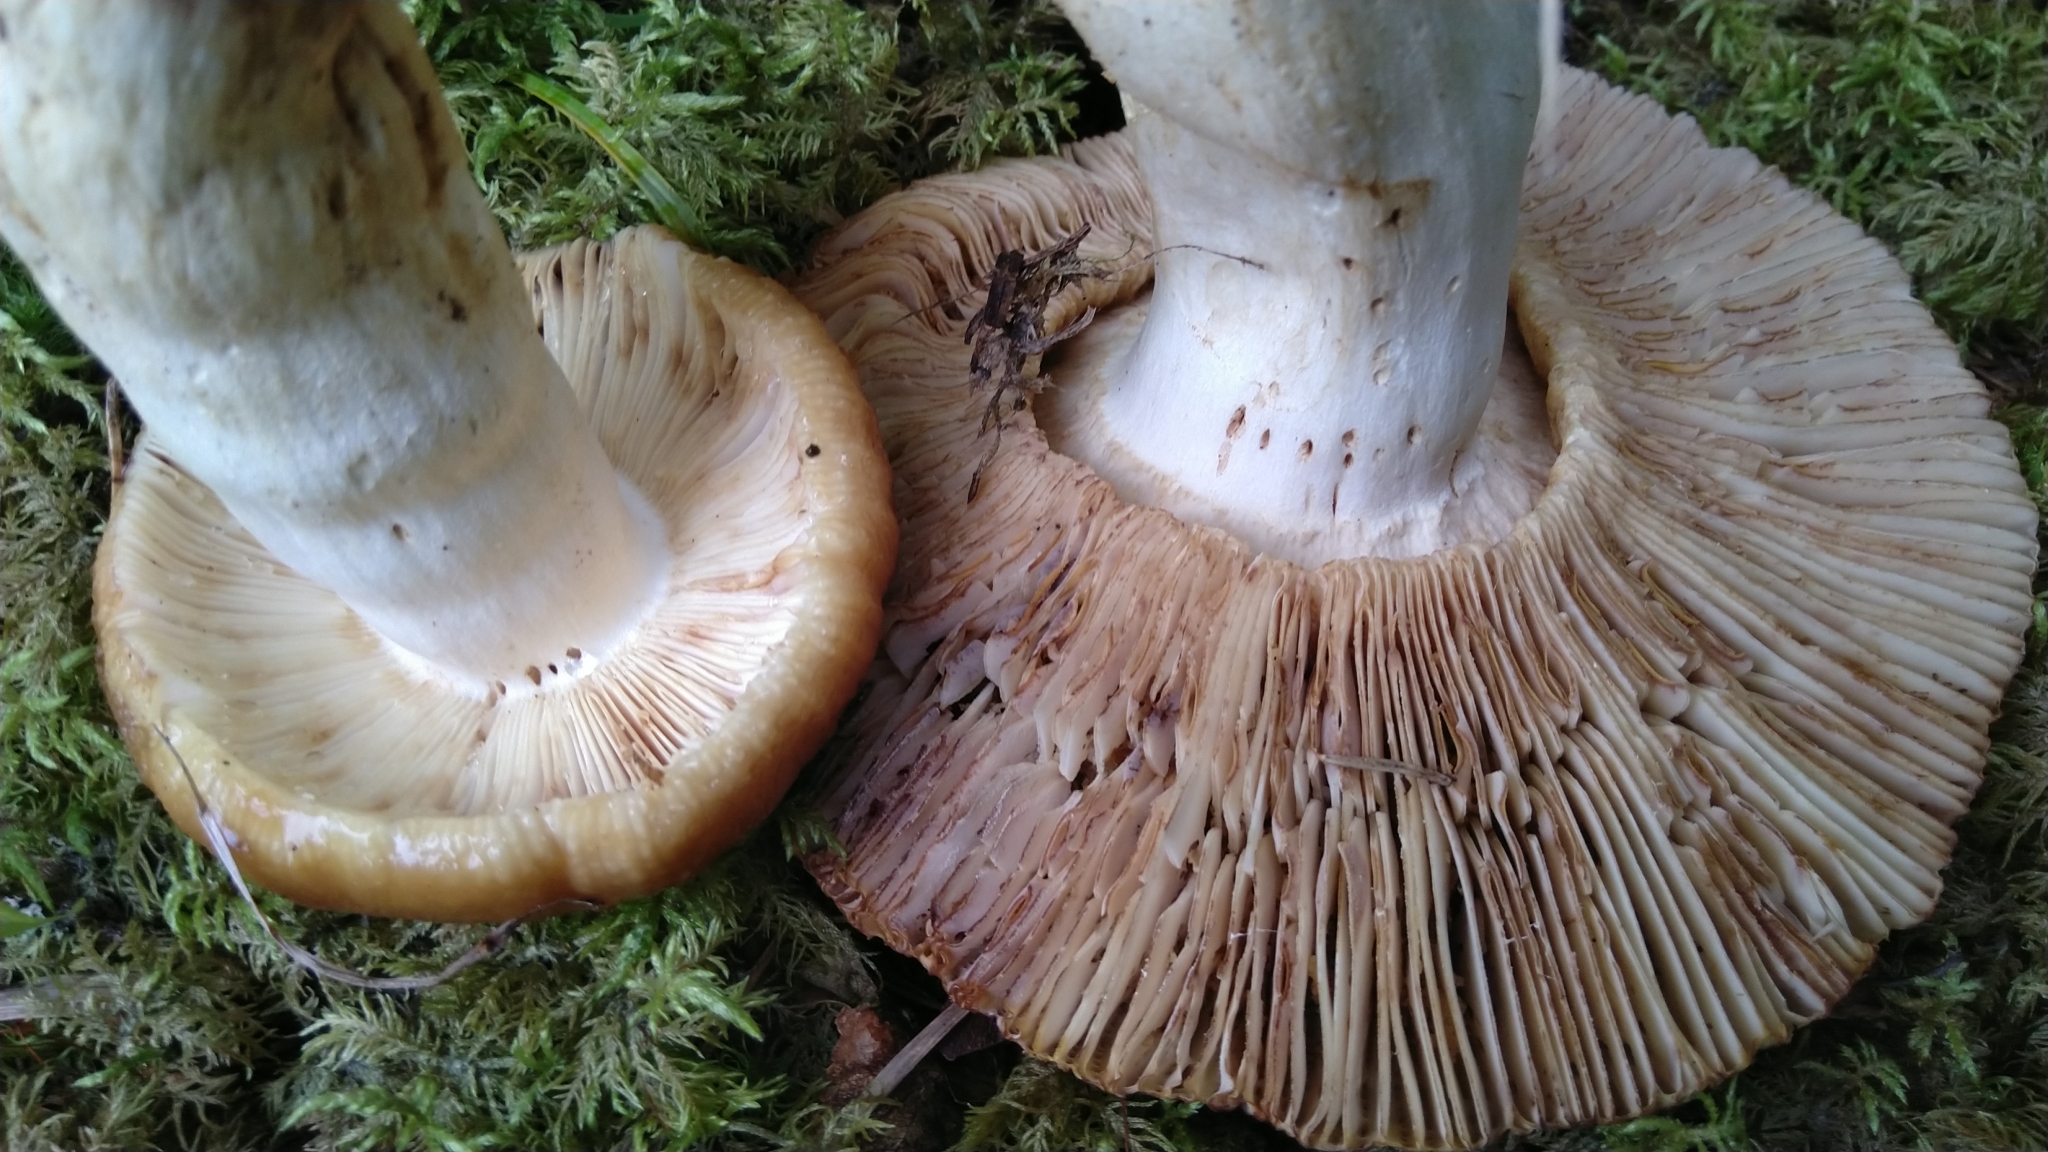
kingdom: Fungi
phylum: Basidiomycota
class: Agaricomycetes
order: Russulales
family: Russulaceae
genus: Russula
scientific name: Russula foetens
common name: Foetid russula
